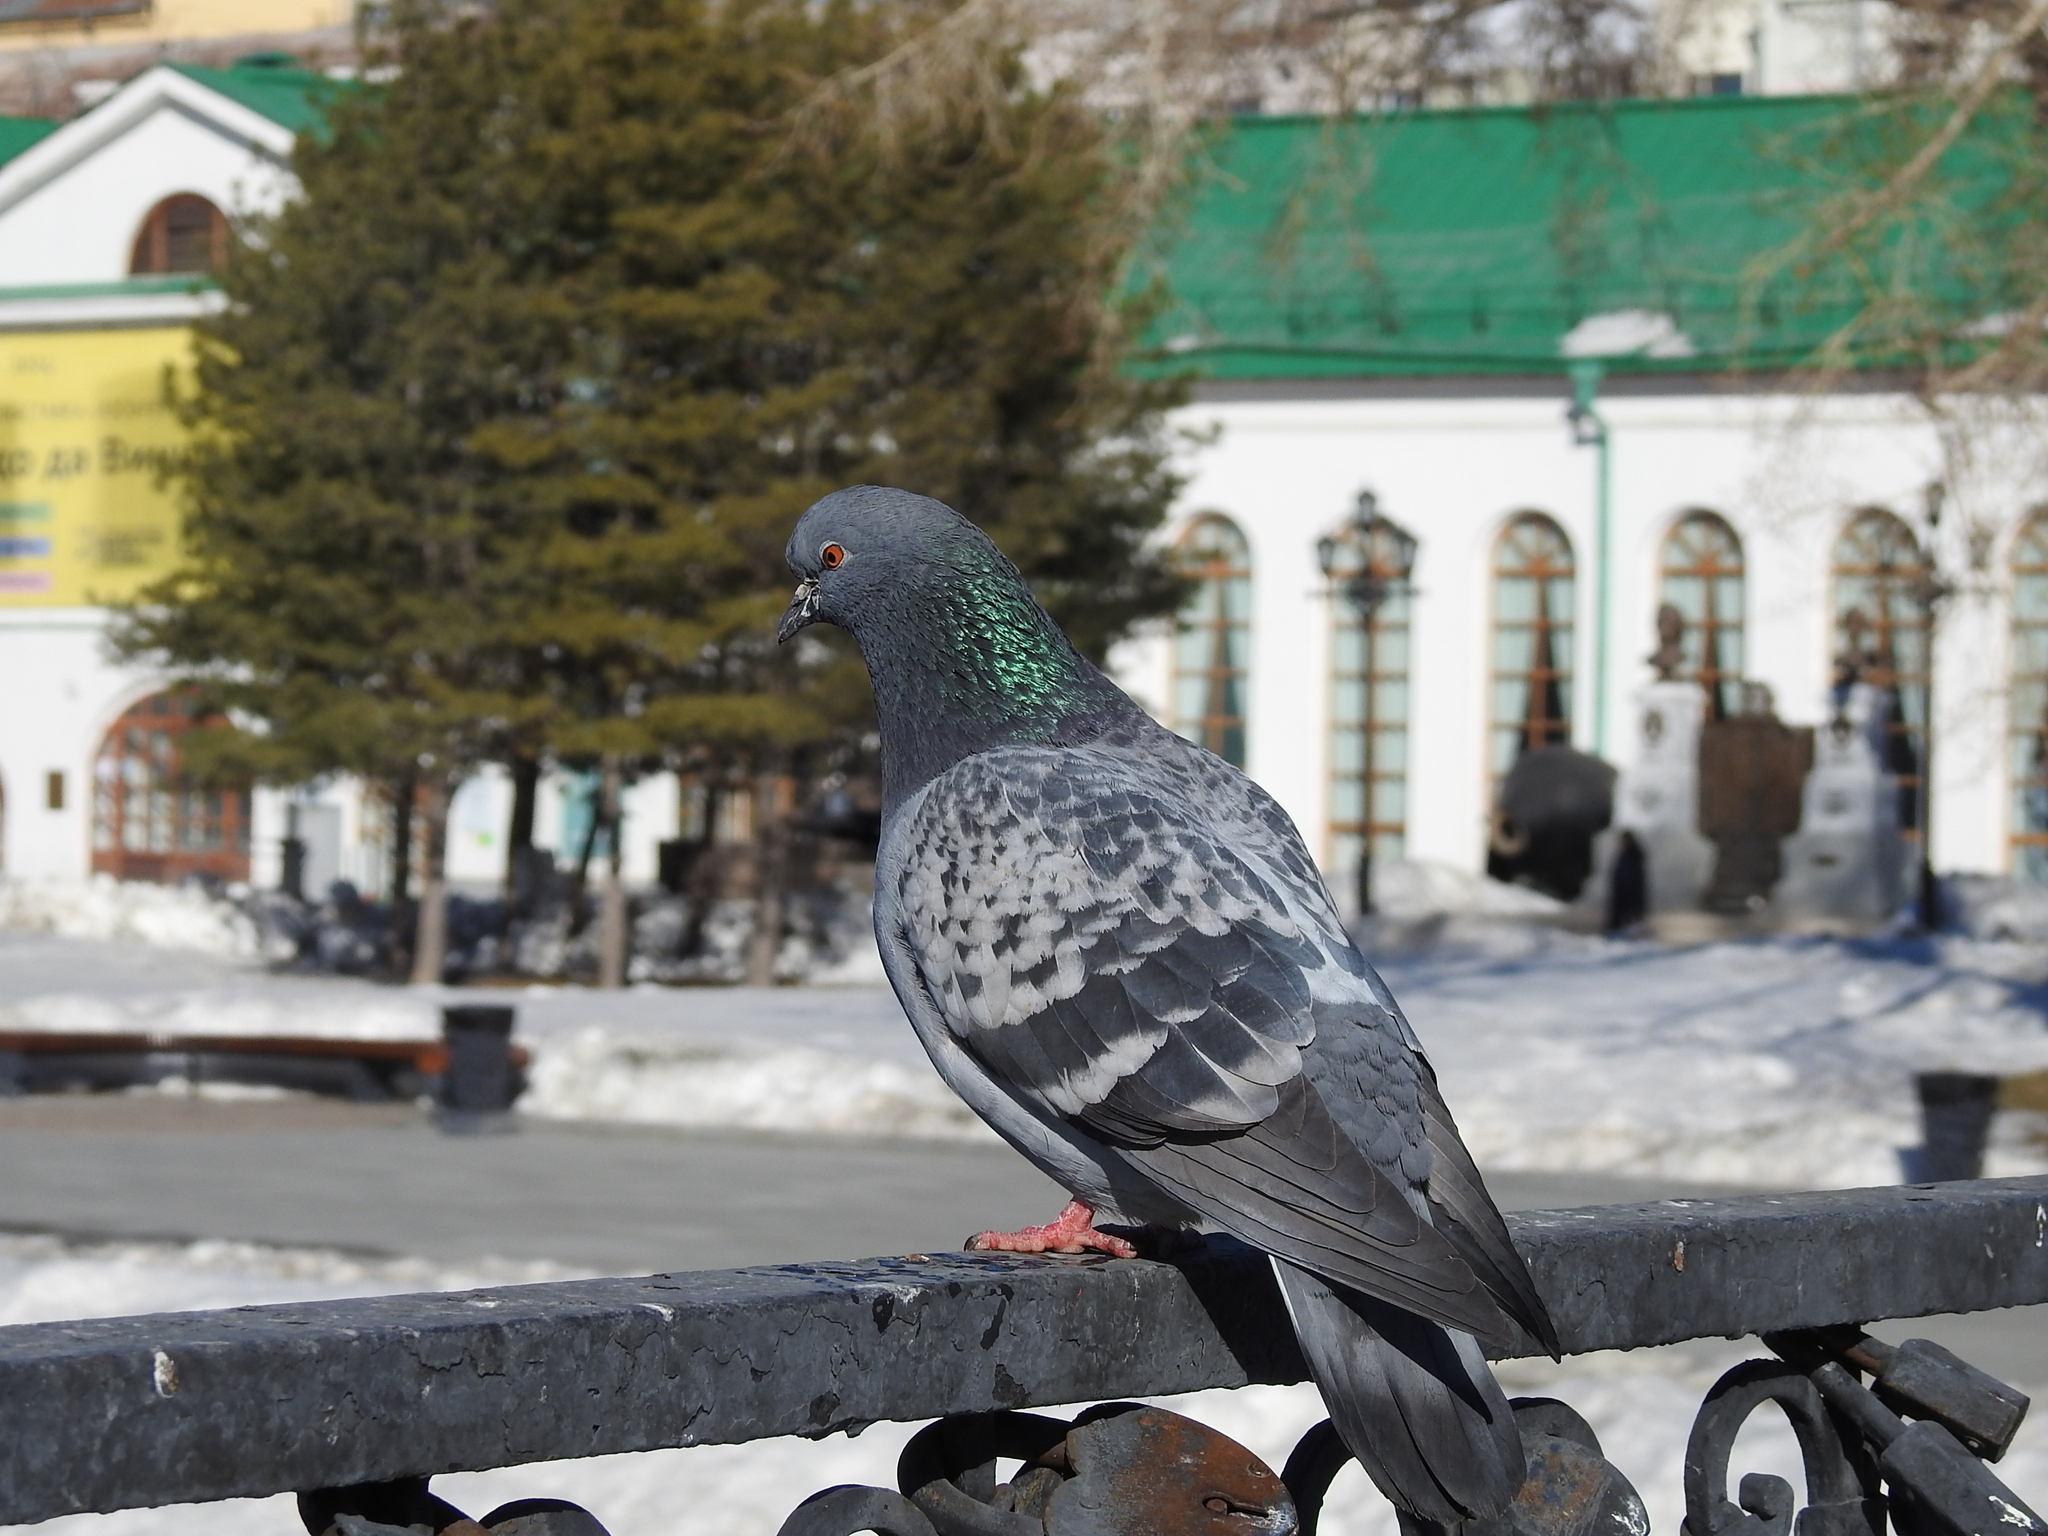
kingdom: Animalia
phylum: Chordata
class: Aves
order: Columbiformes
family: Columbidae
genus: Columba
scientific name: Columba livia
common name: Rock pigeon
